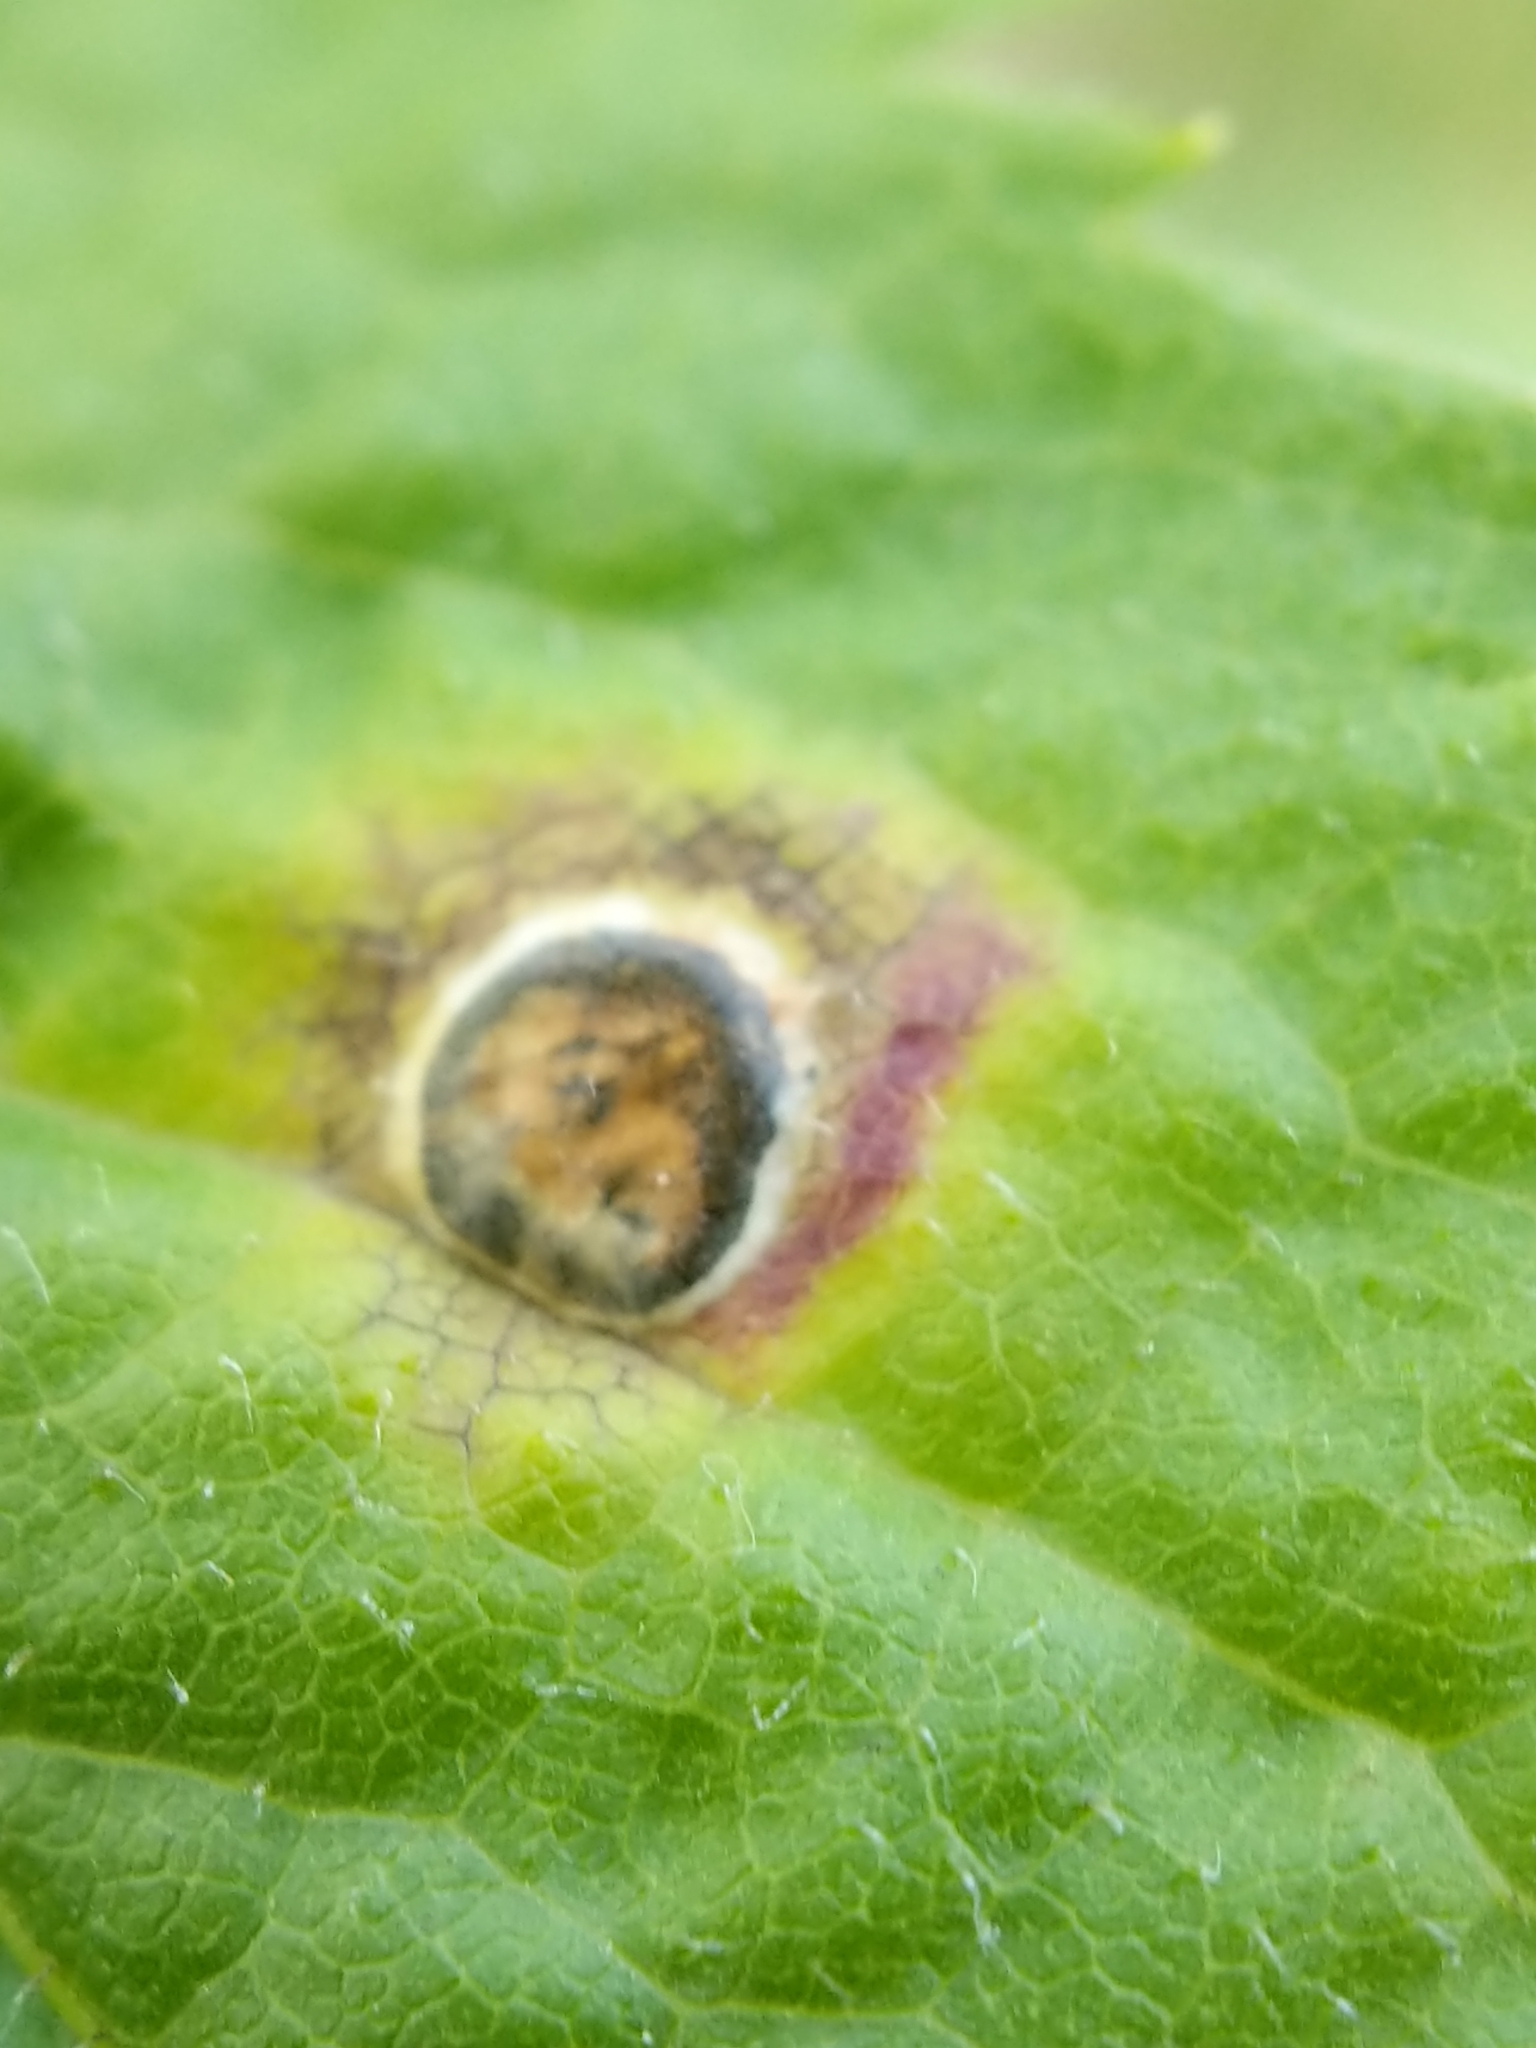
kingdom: Animalia
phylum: Arthropoda
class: Insecta
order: Diptera
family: Cecidomyiidae
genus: Asteromyia
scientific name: Asteromyia carbonifera
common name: Carbonifera goldenrod gall midge
